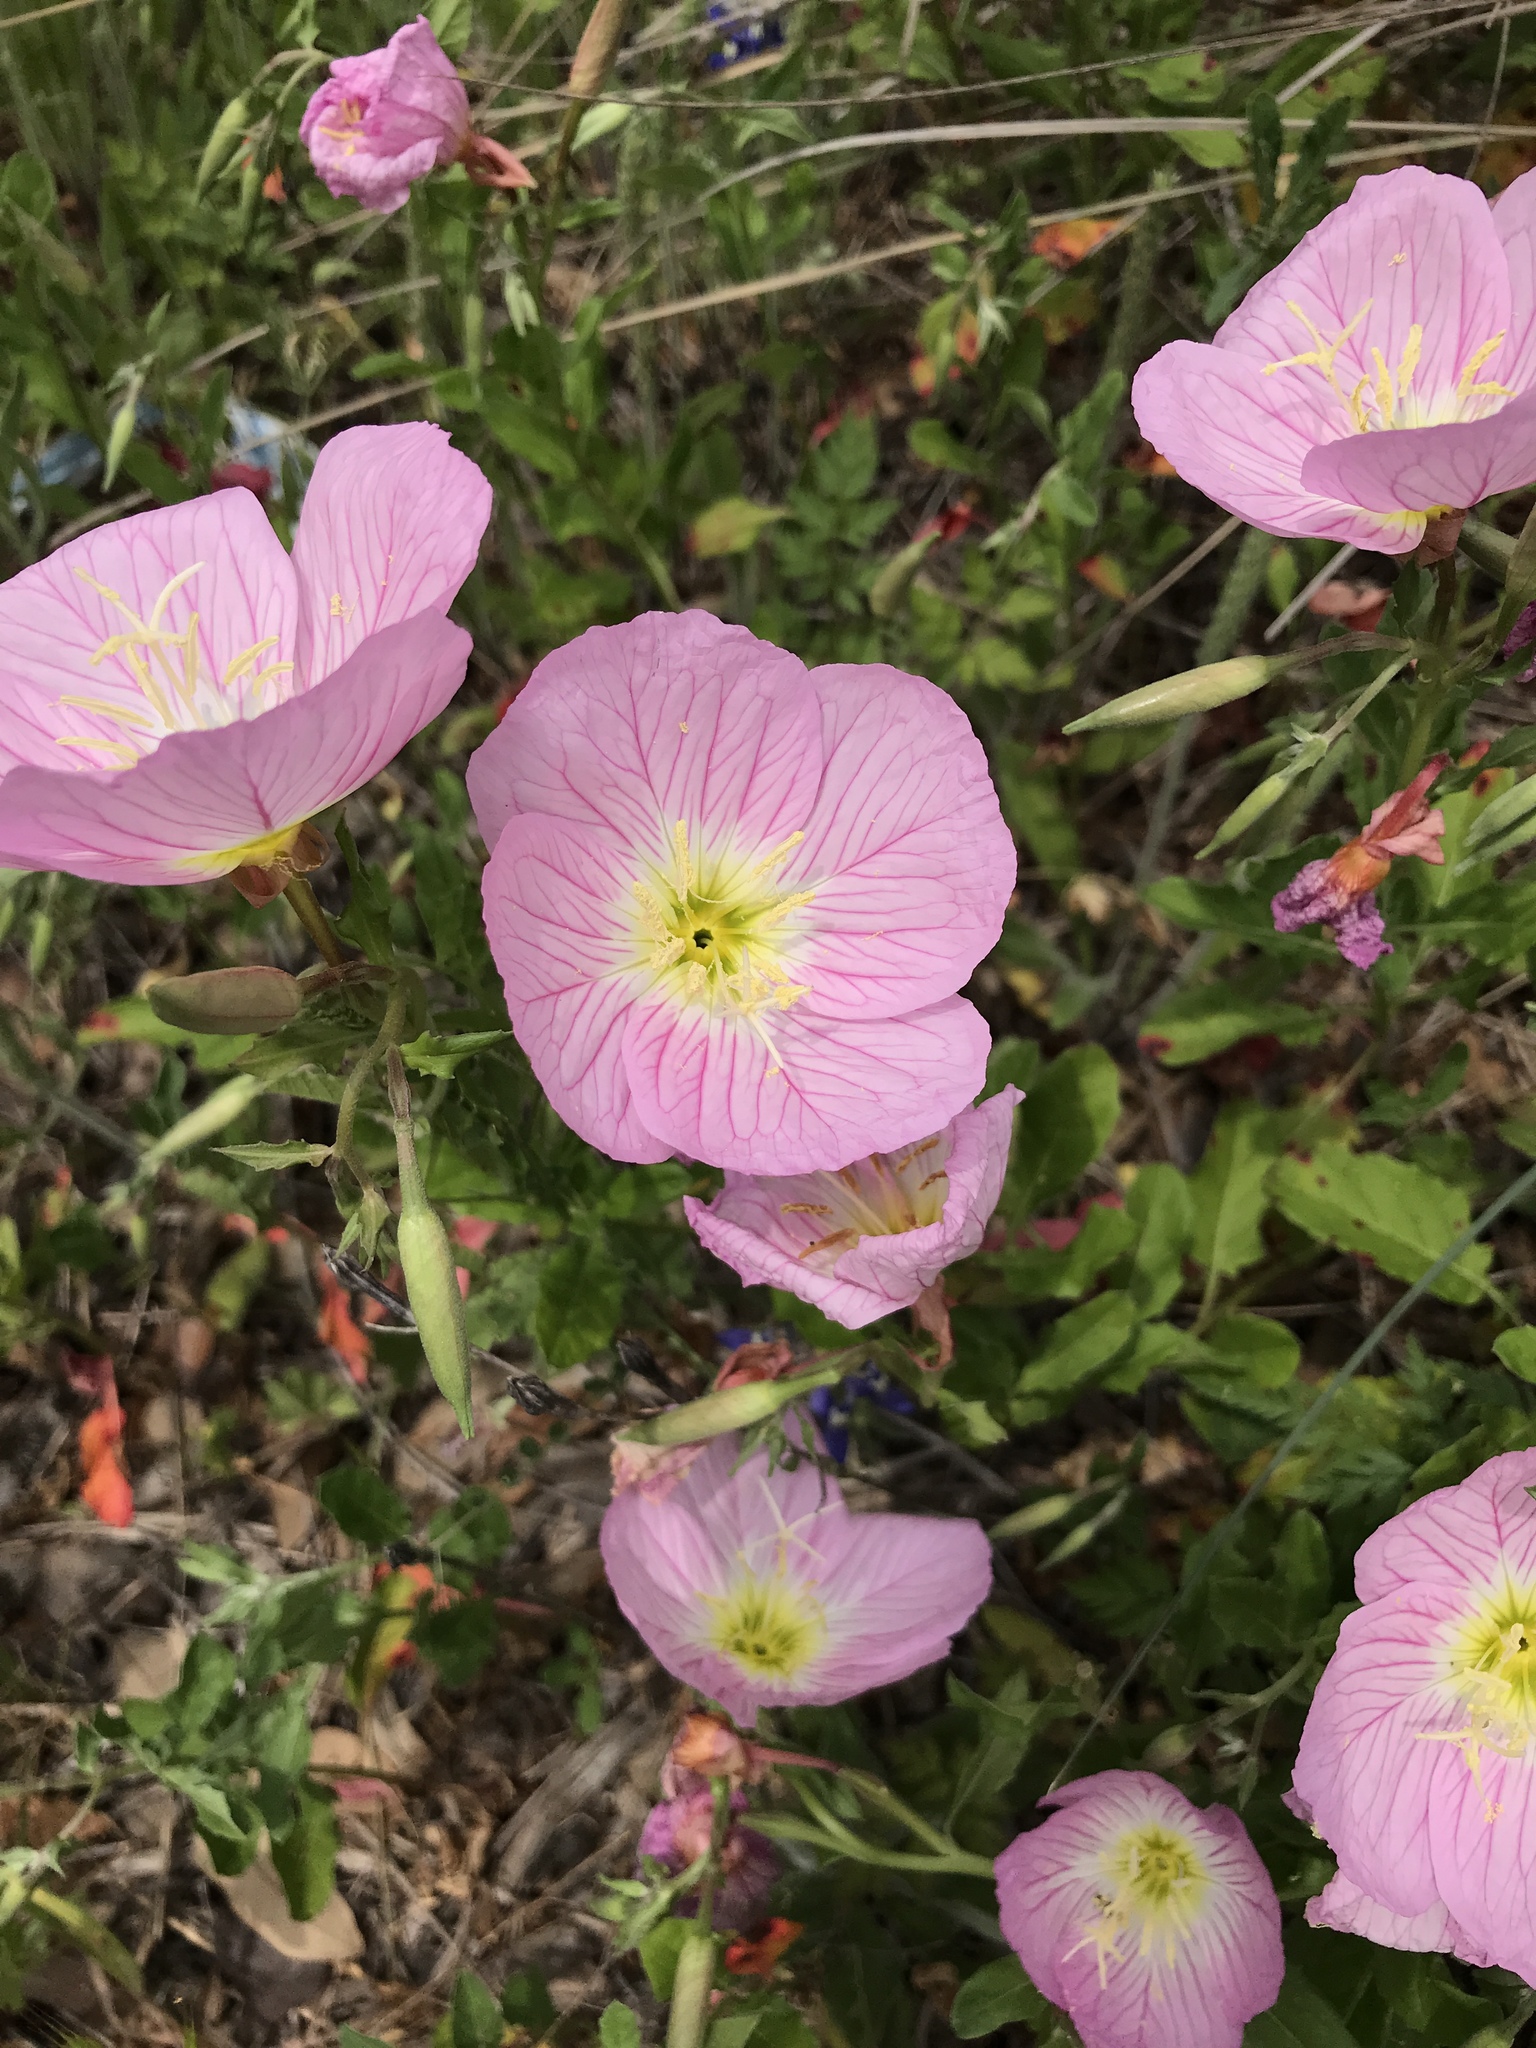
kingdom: Plantae
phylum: Tracheophyta
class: Magnoliopsida
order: Myrtales
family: Onagraceae
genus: Oenothera
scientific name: Oenothera speciosa
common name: White evening-primrose
